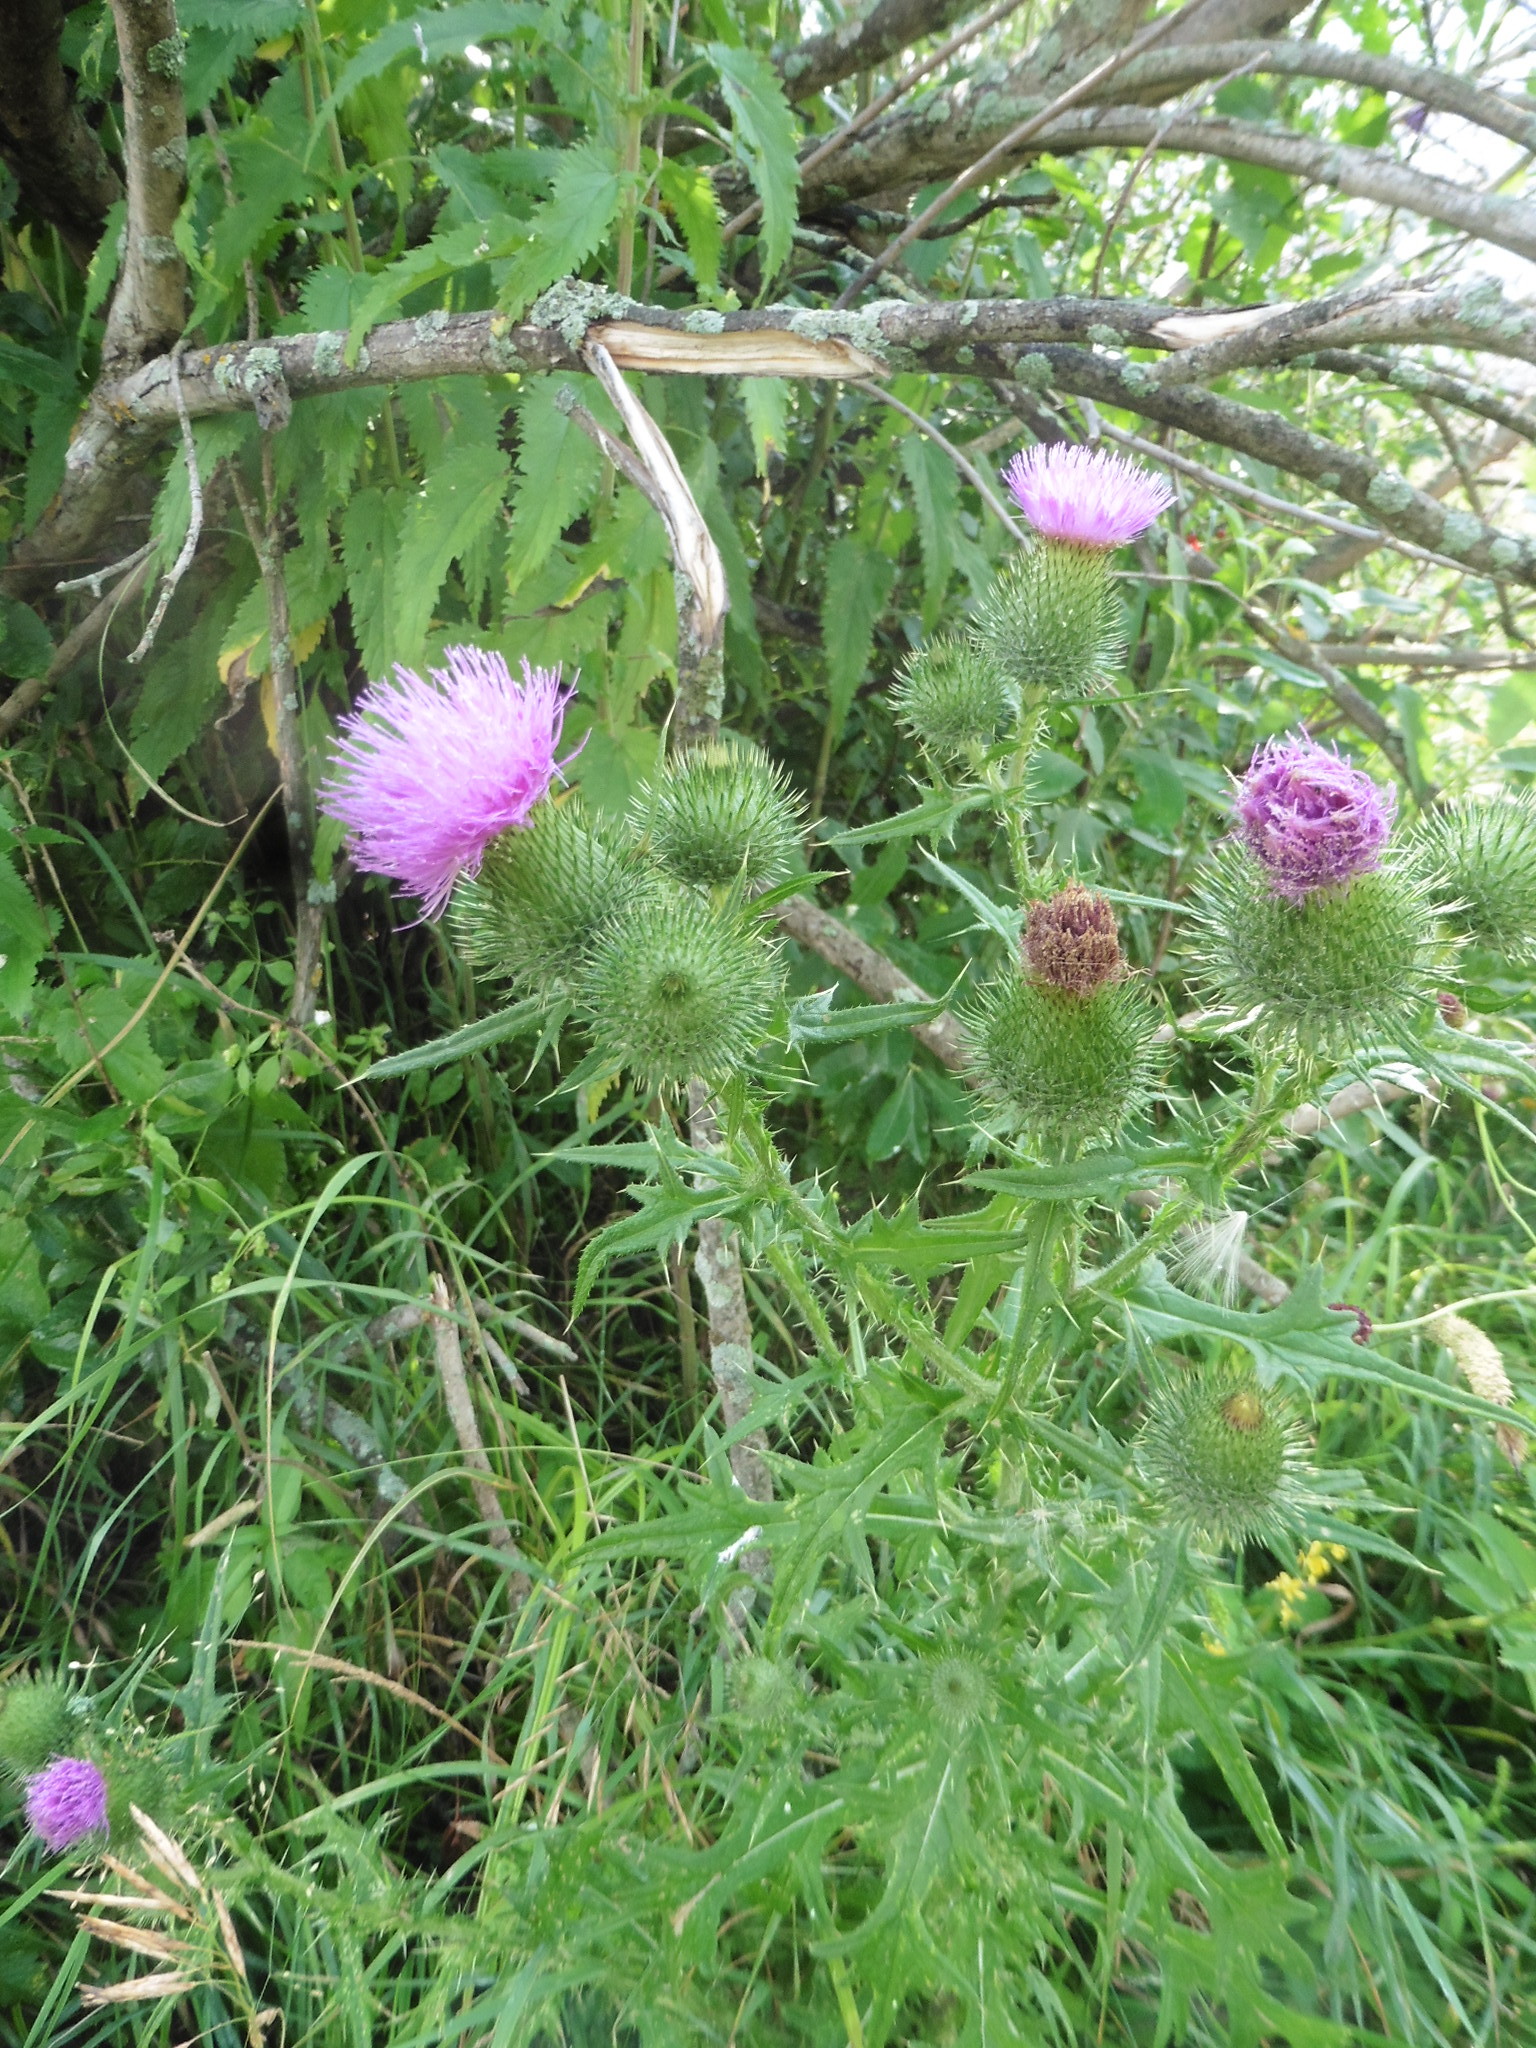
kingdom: Plantae
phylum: Tracheophyta
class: Magnoliopsida
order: Asterales
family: Asteraceae
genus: Cirsium
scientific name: Cirsium vulgare
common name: Bull thistle
